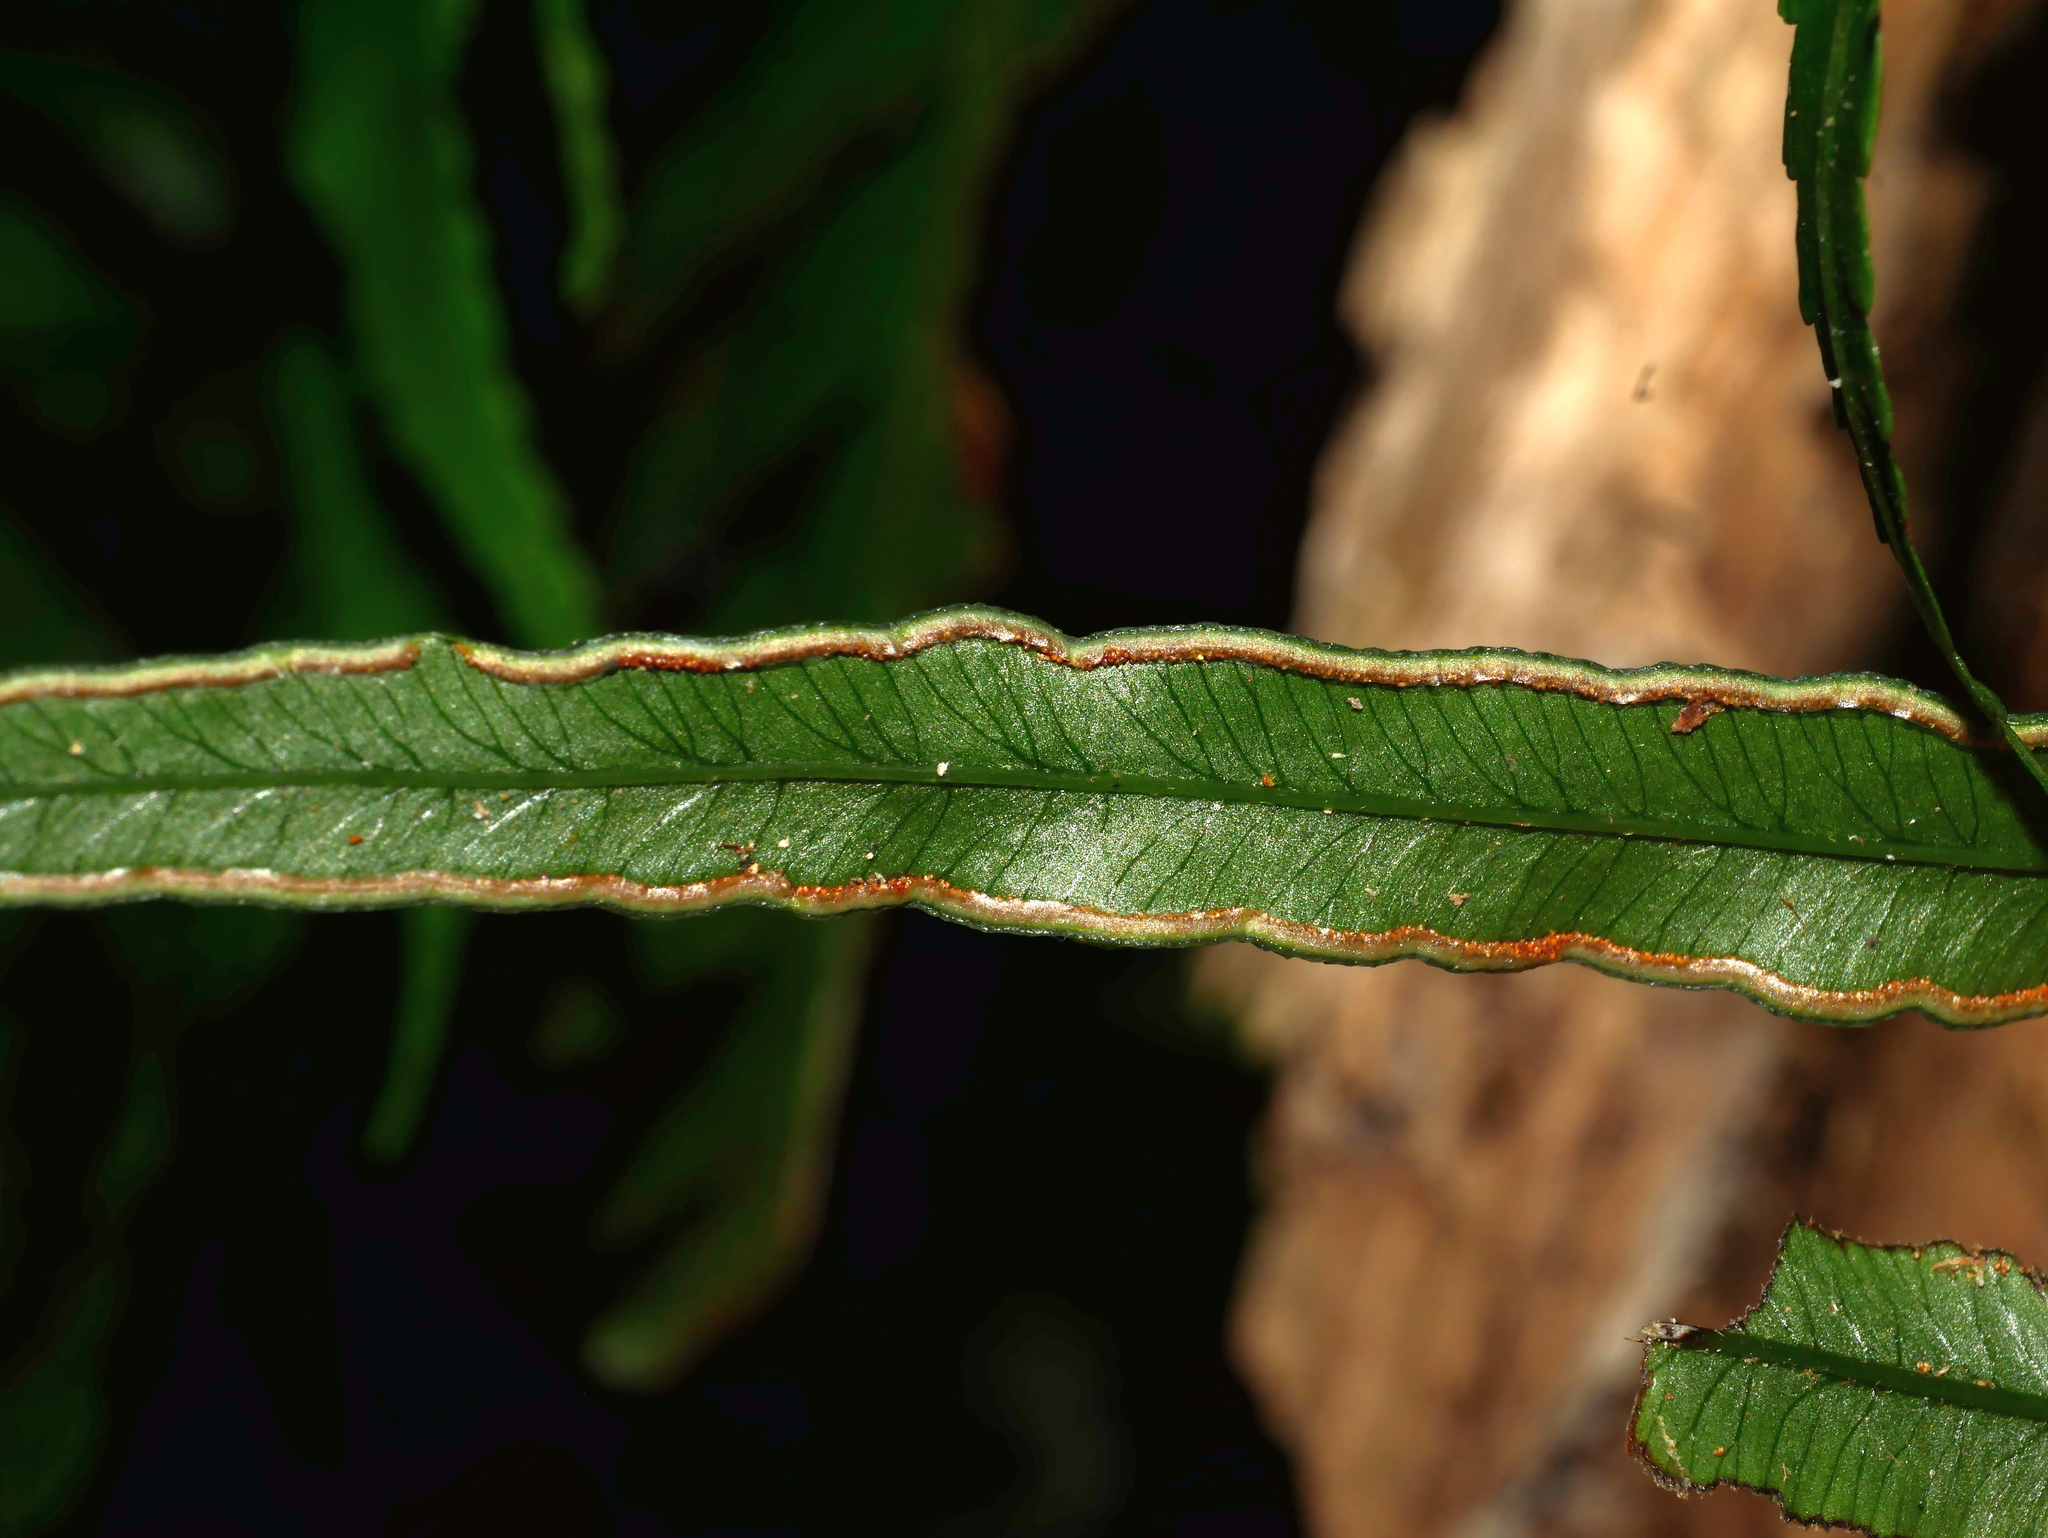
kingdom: Plantae
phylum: Tracheophyta
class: Polypodiopsida
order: Polypodiales
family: Pteridaceae
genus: Pteris
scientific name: Pteris cadieri
